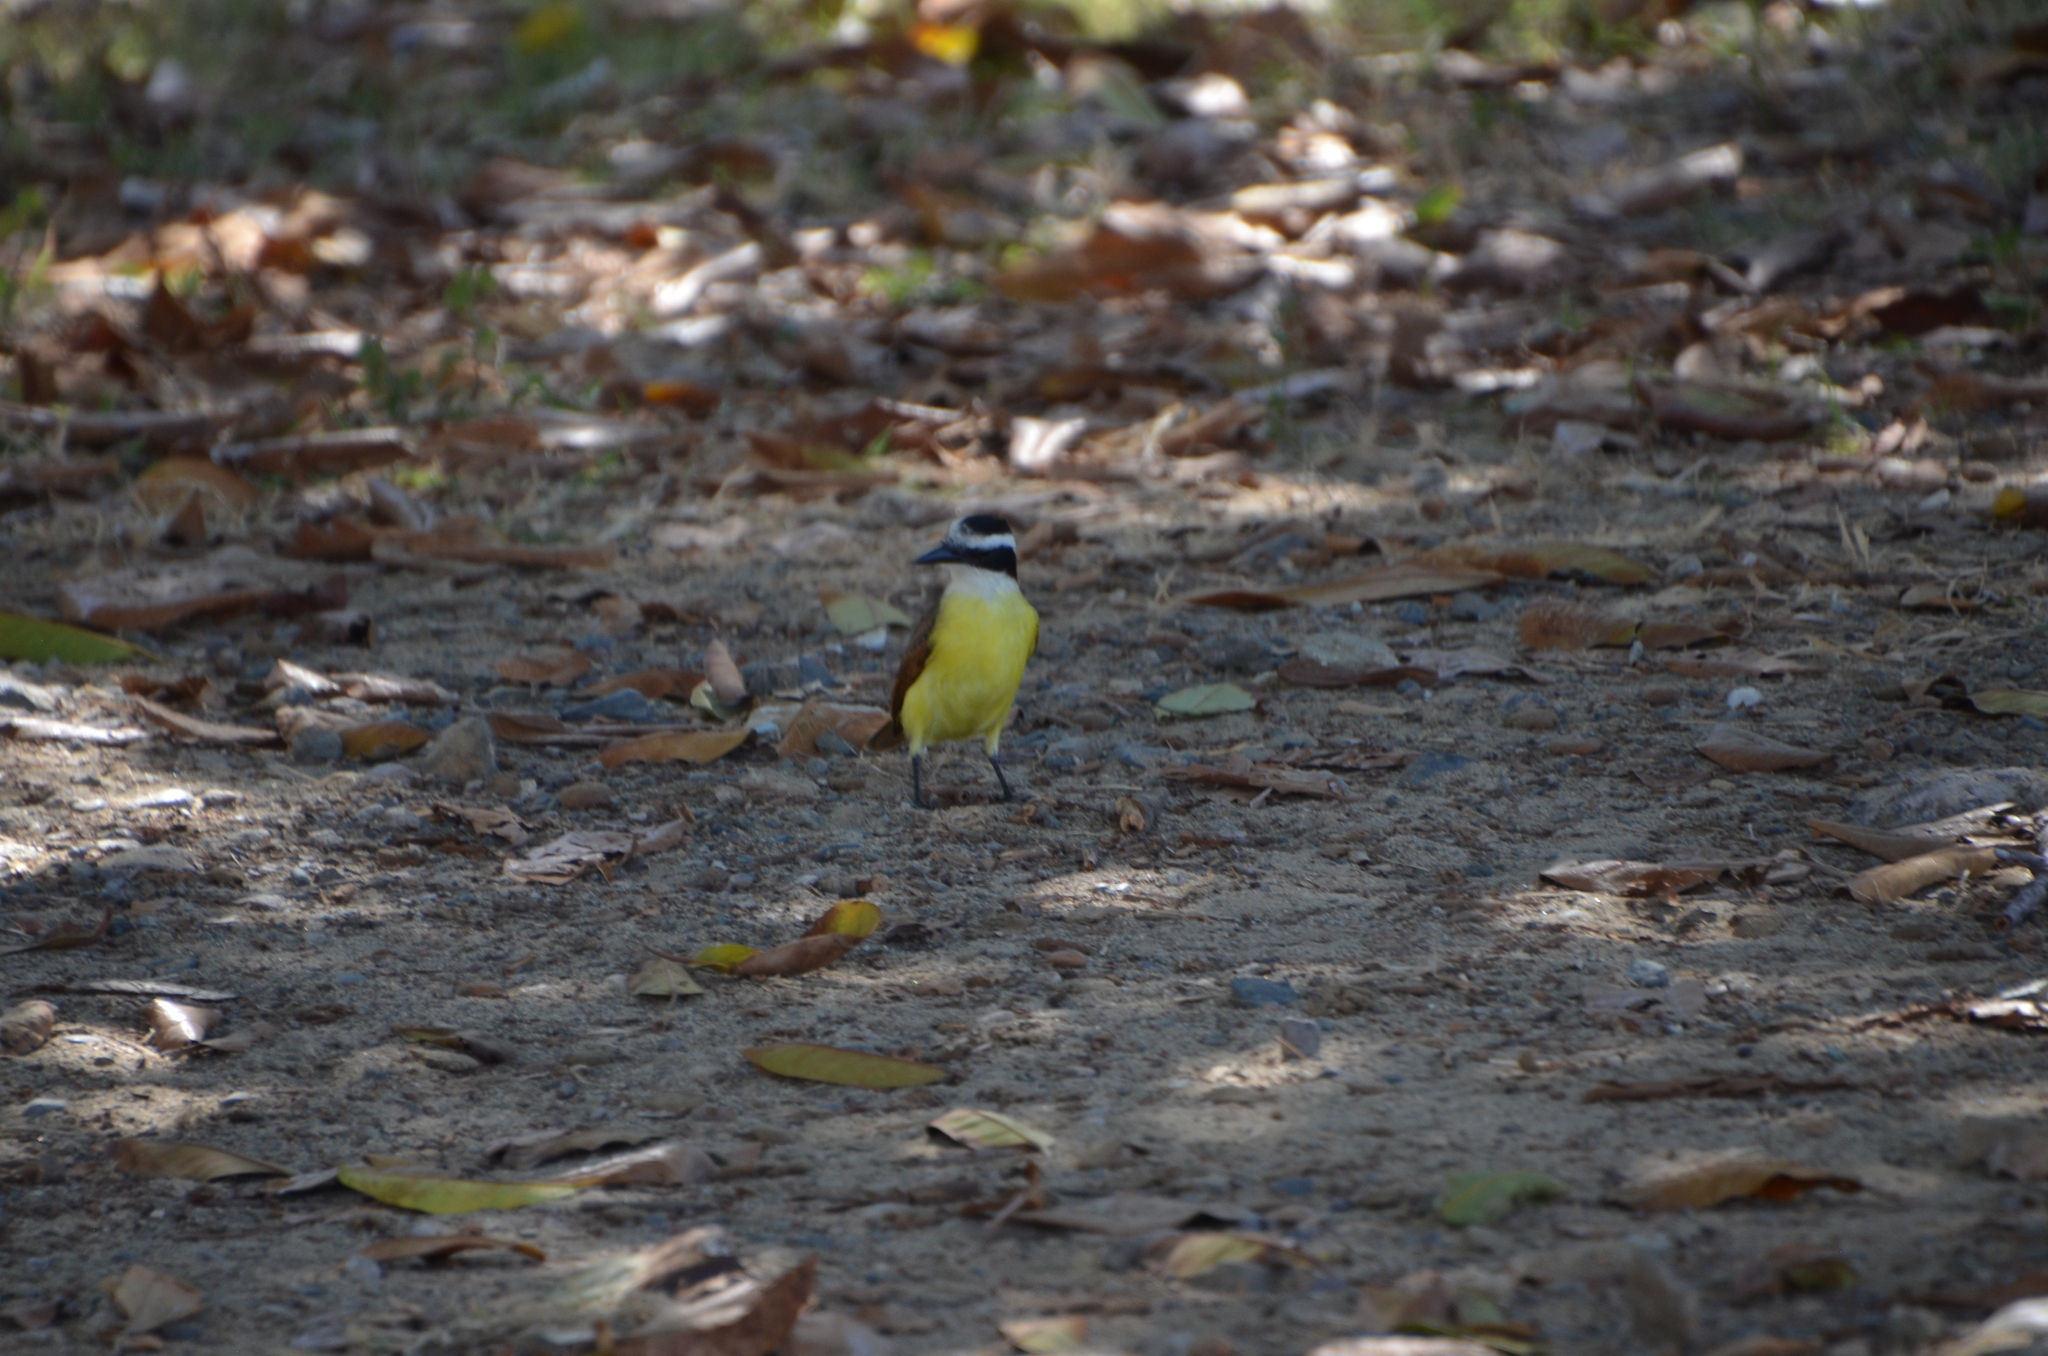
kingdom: Animalia
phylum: Chordata
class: Aves
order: Passeriformes
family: Tyrannidae
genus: Pitangus
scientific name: Pitangus sulphuratus
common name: Great kiskadee
